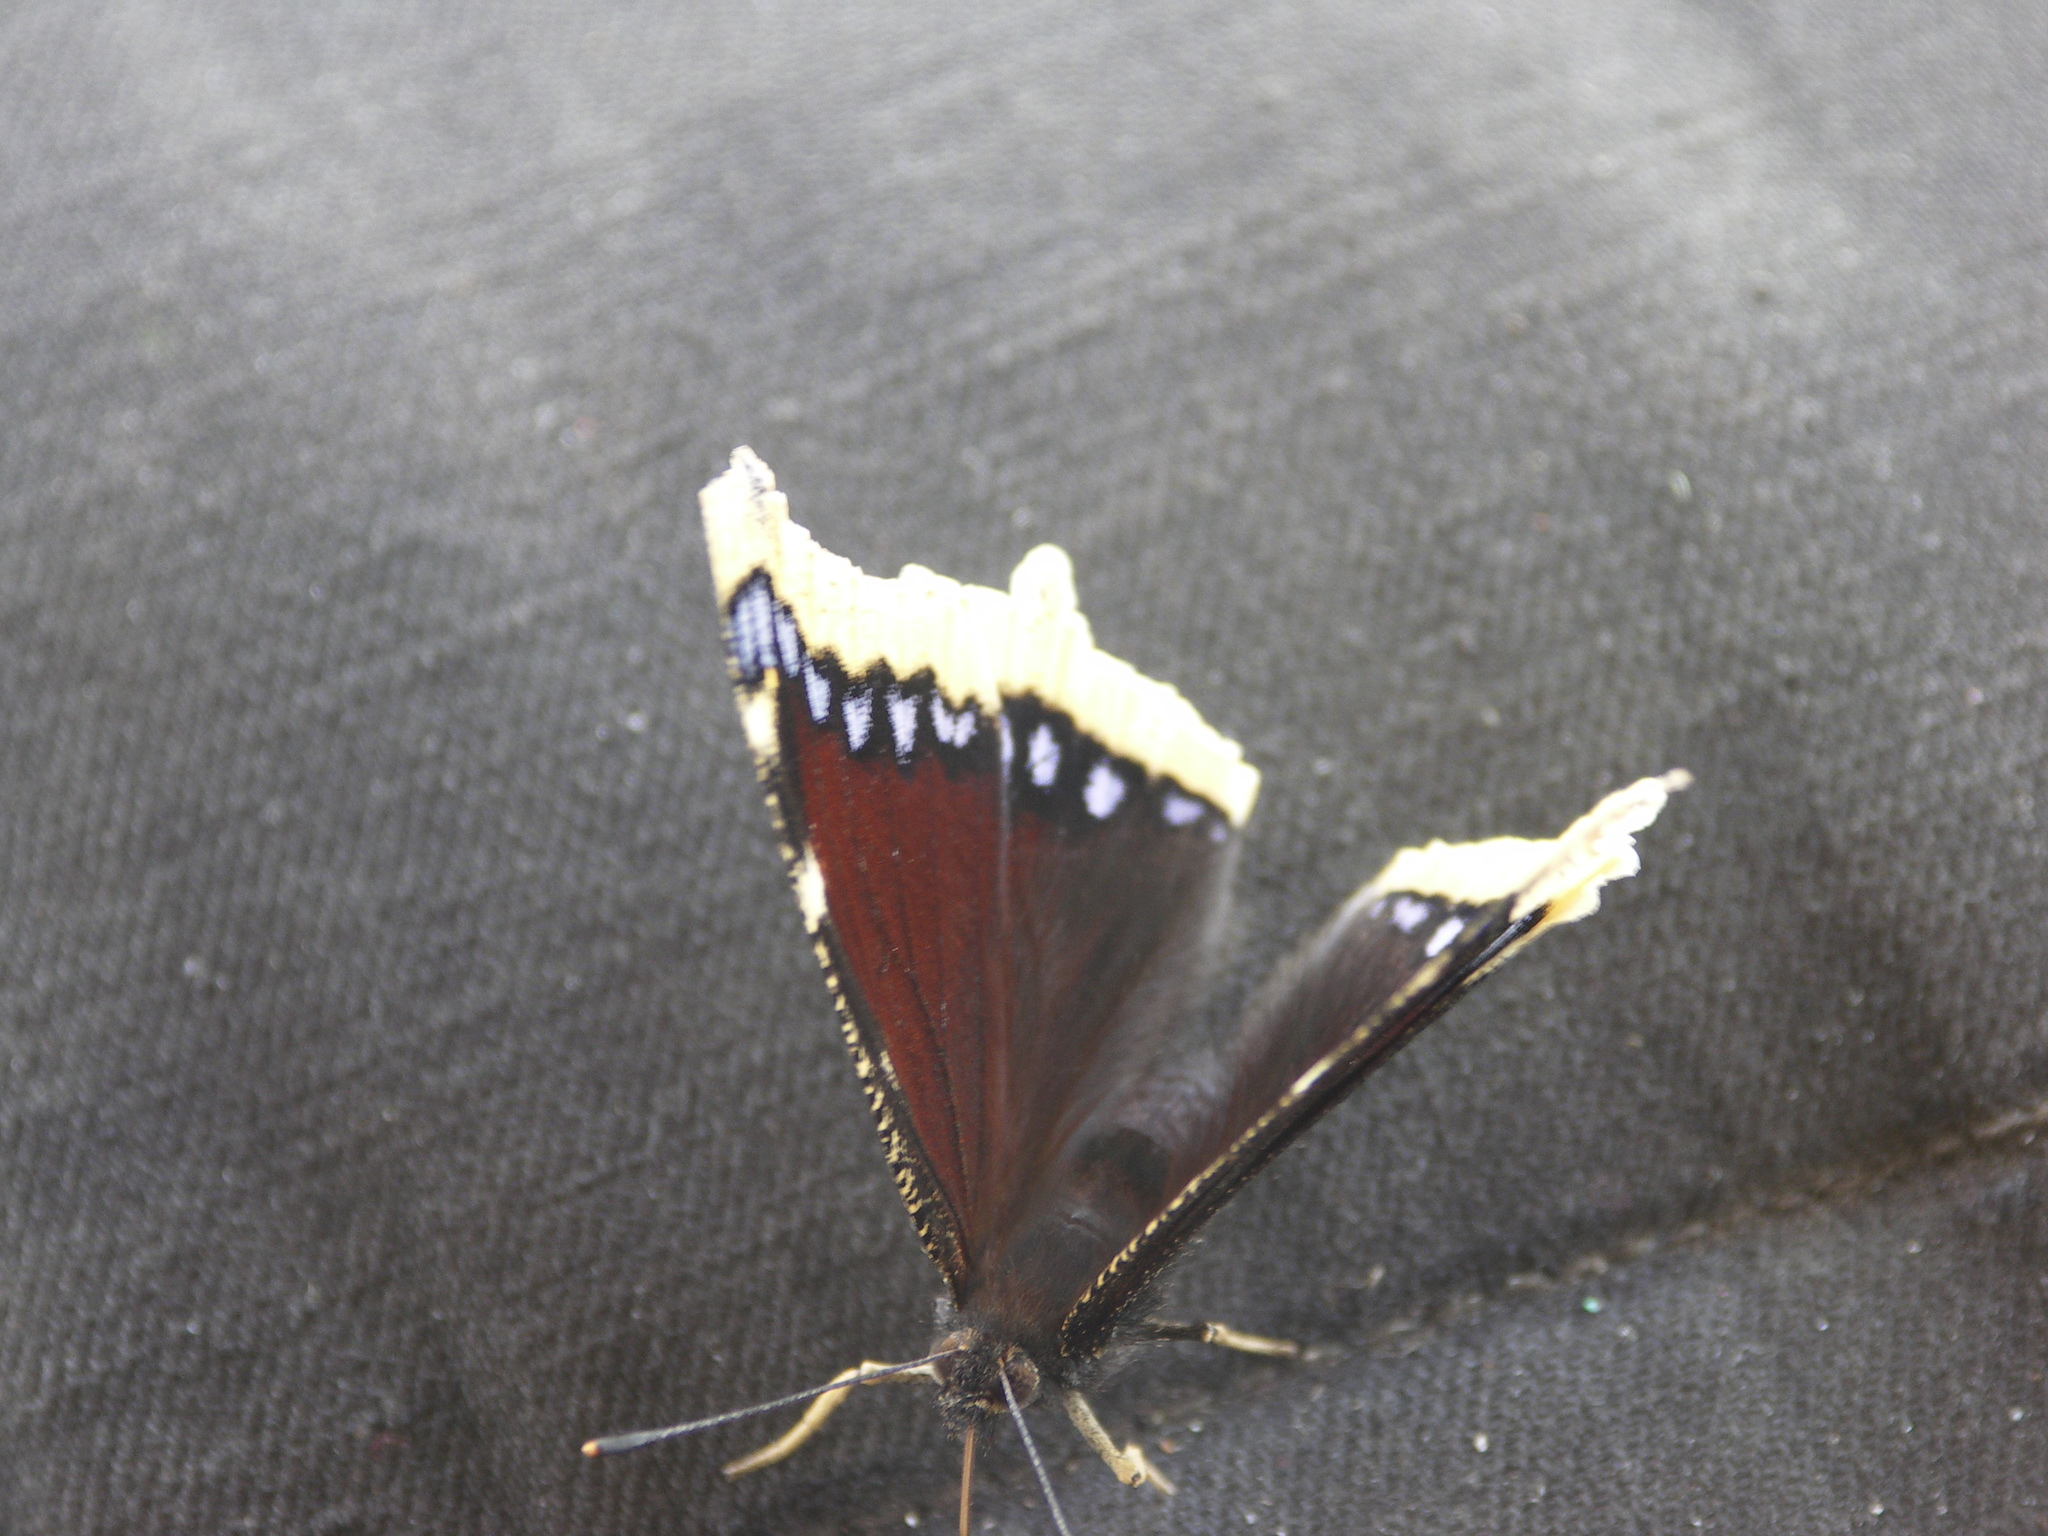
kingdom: Animalia
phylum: Arthropoda
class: Insecta
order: Lepidoptera
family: Nymphalidae
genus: Nymphalis
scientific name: Nymphalis antiopa
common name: Camberwell beauty
